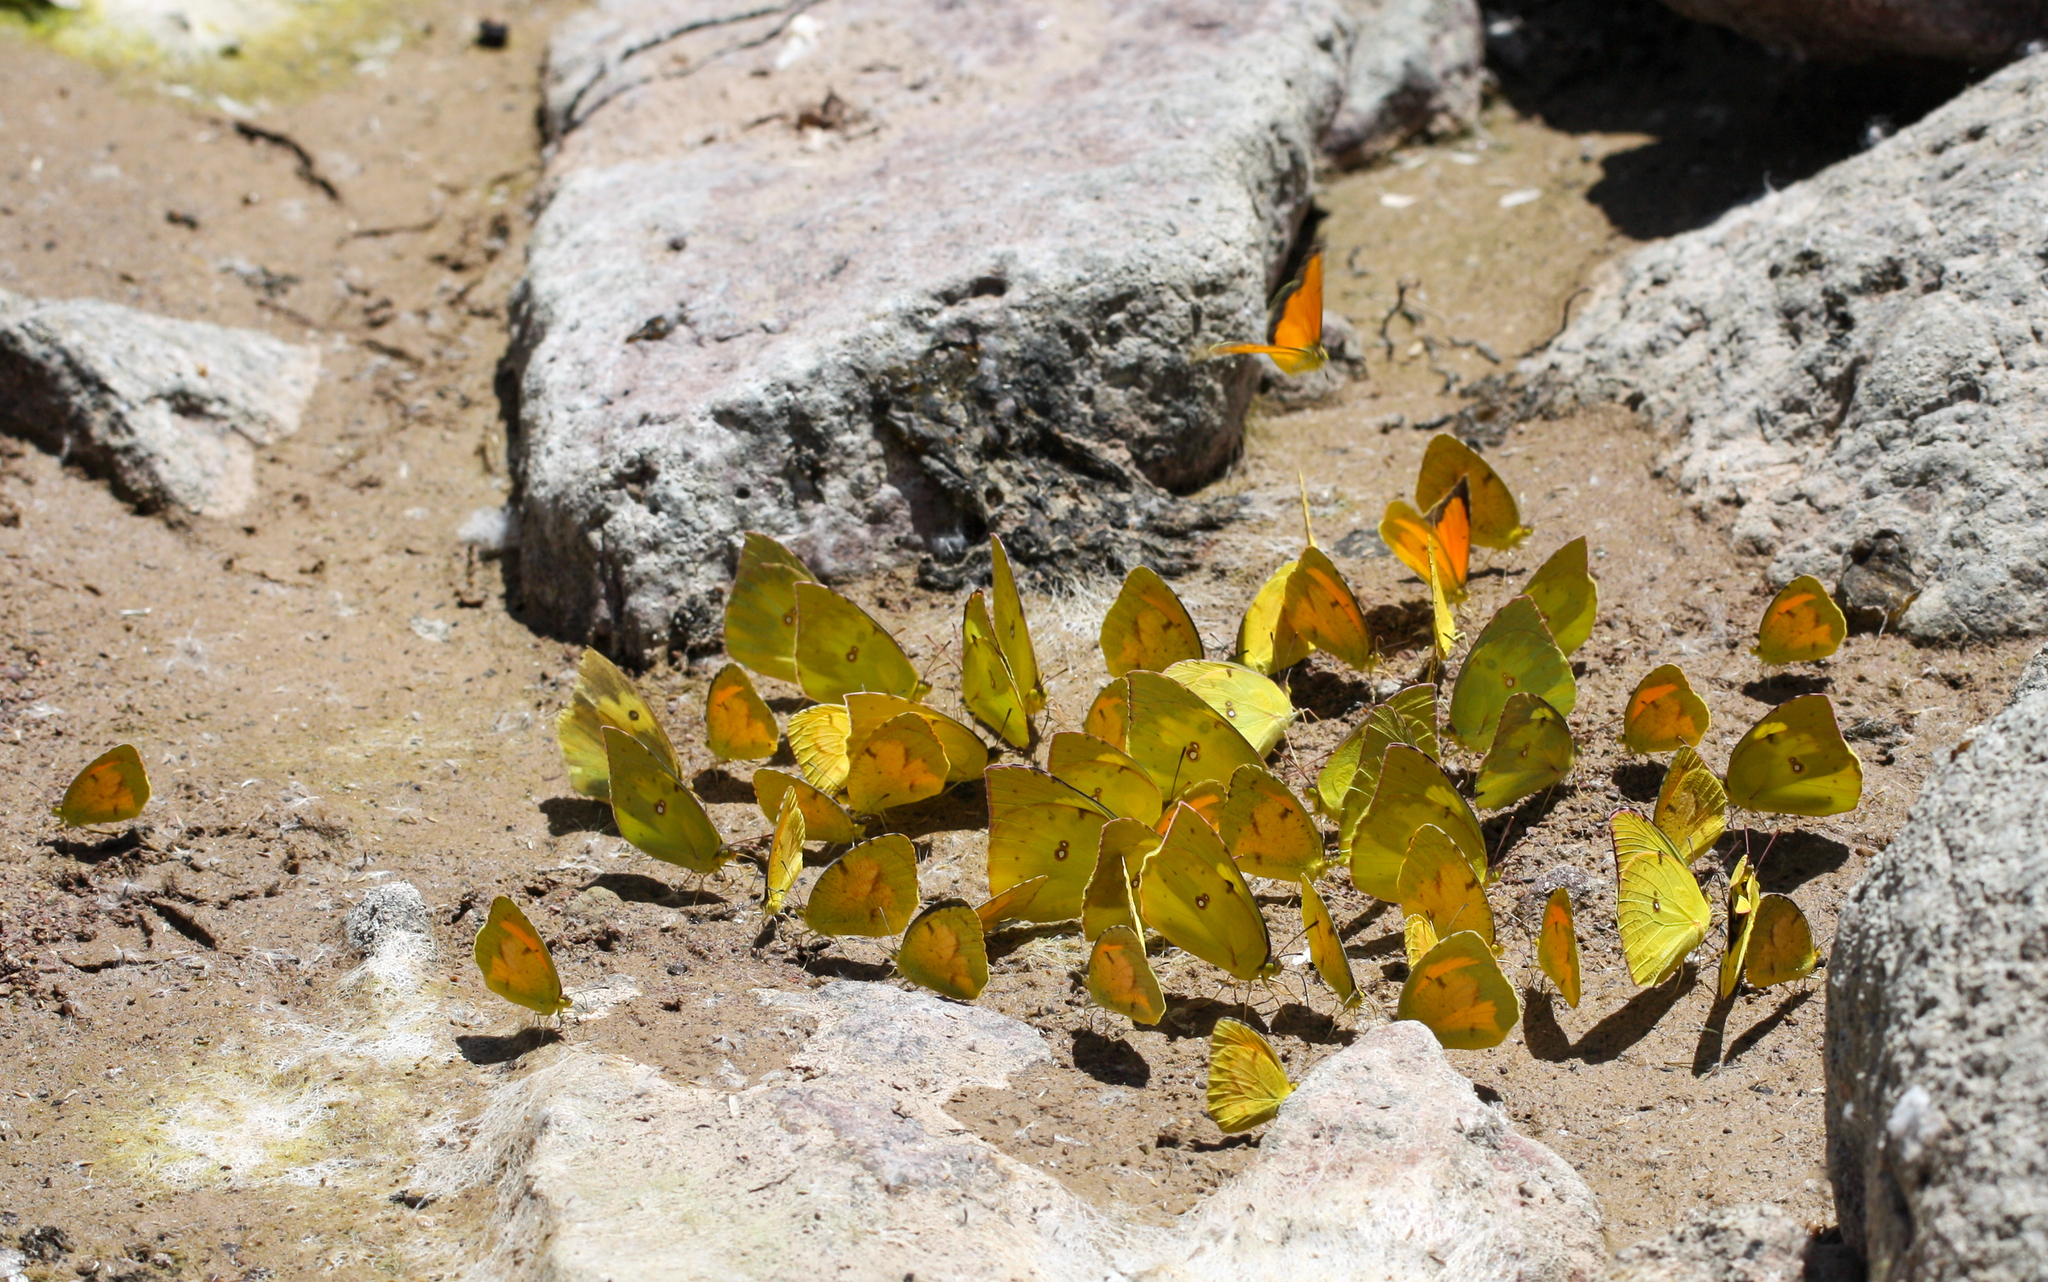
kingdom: Animalia
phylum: Arthropoda
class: Insecta
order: Lepidoptera
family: Pieridae
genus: Zerene
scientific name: Zerene cesonia
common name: Southern dogface
